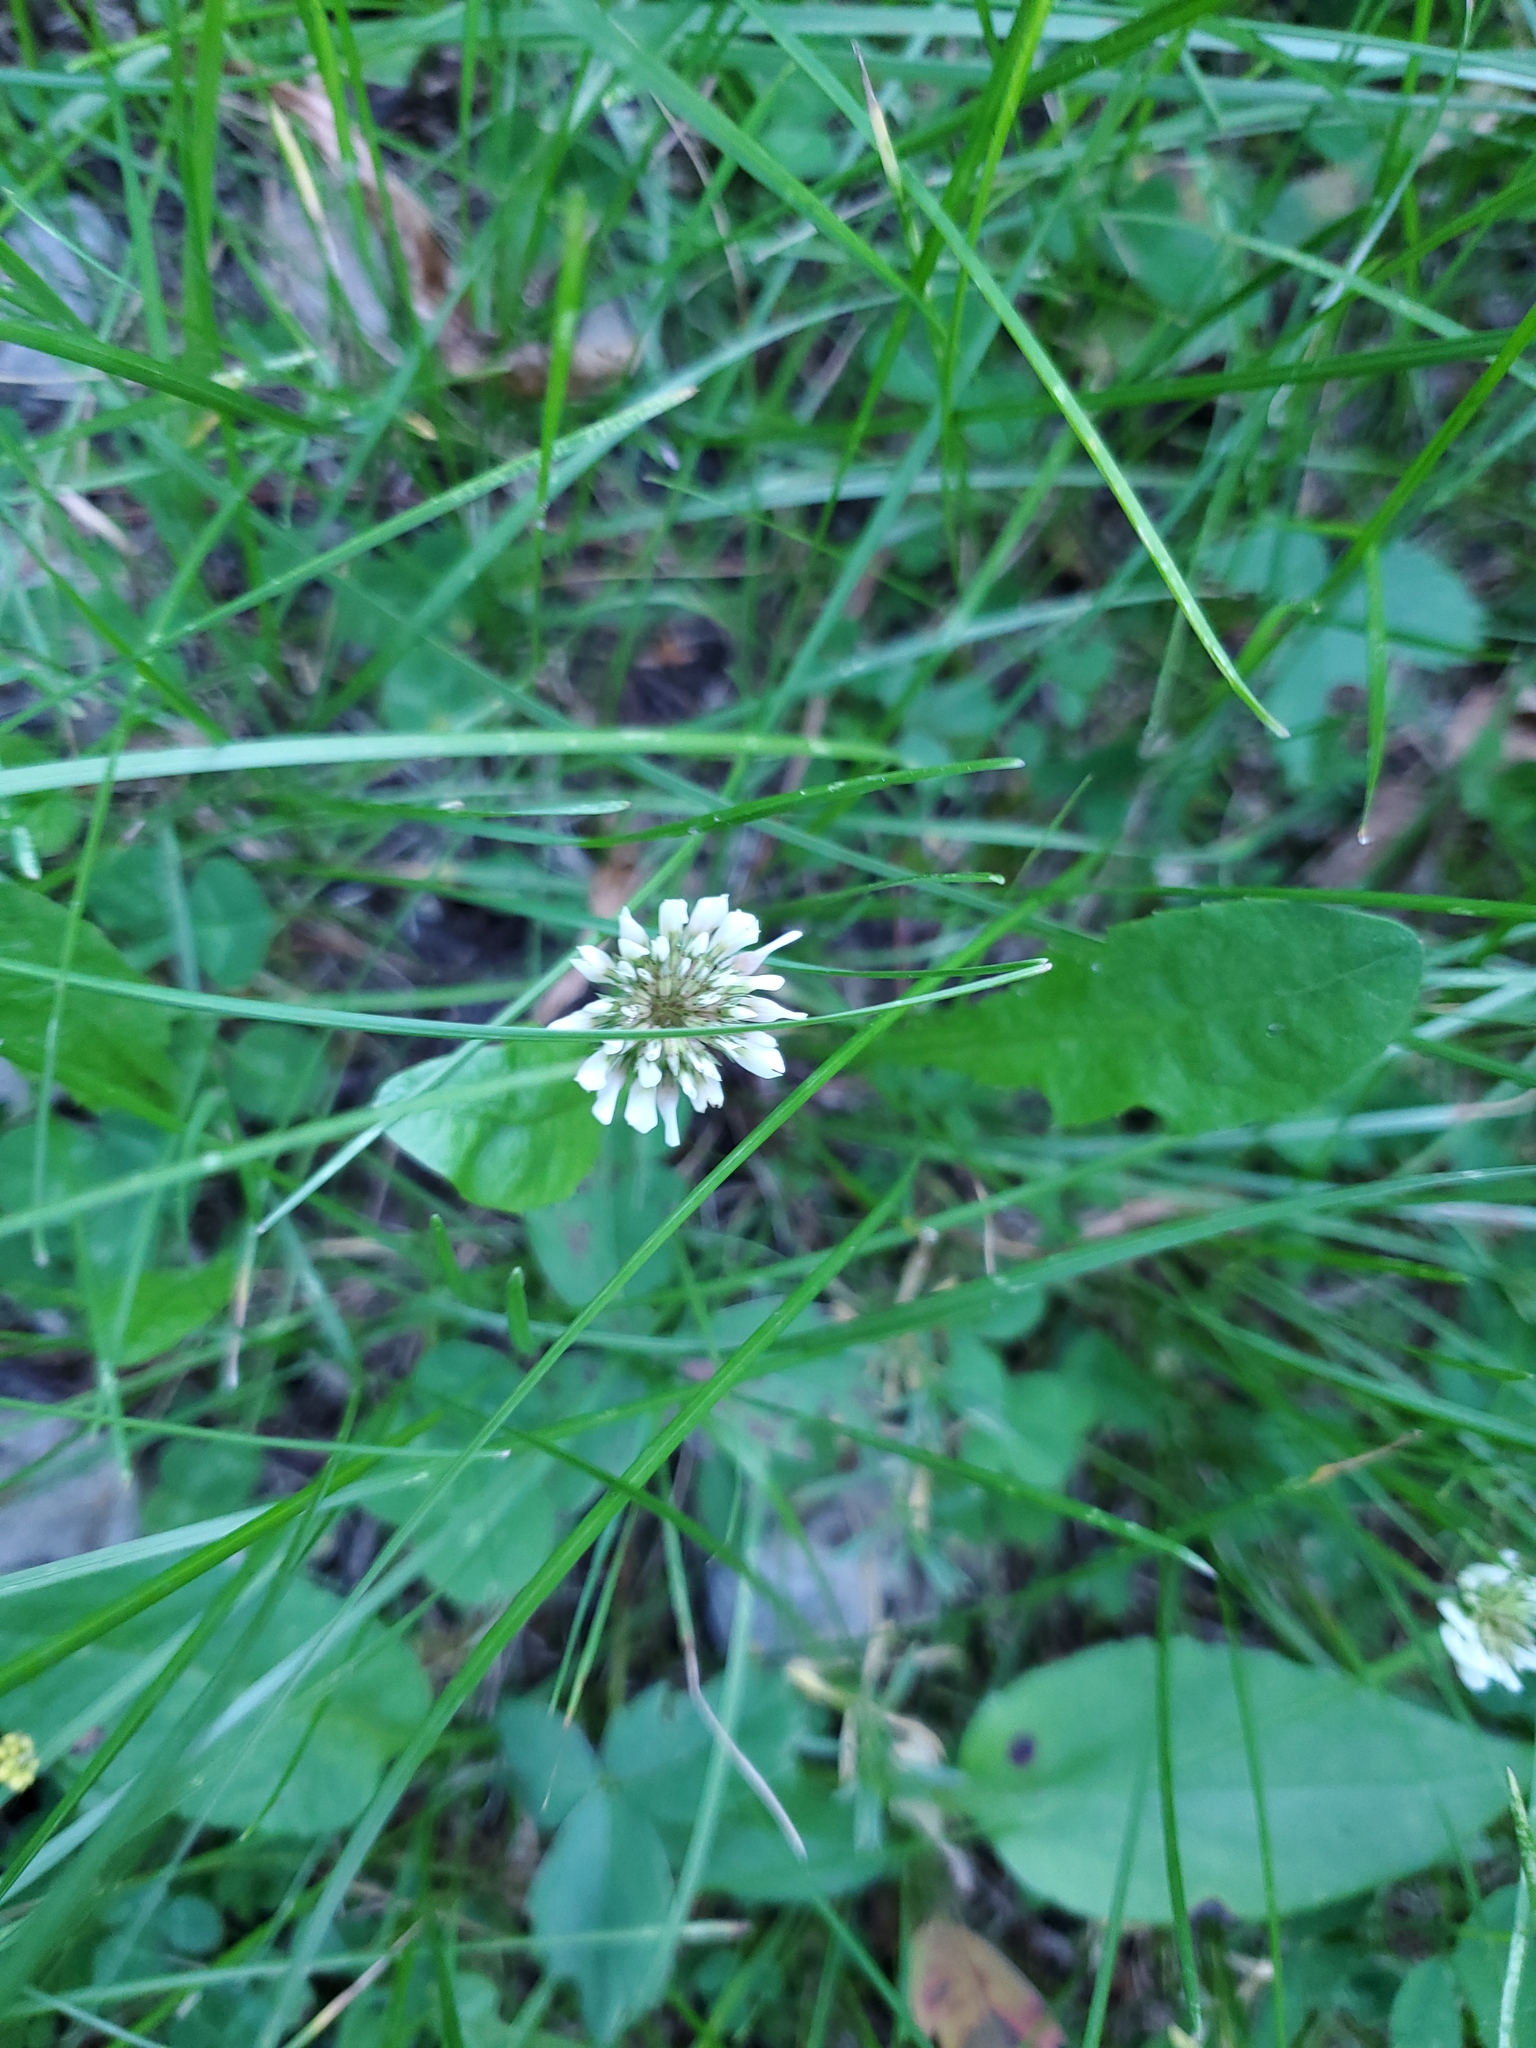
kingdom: Plantae
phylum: Tracheophyta
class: Magnoliopsida
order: Fabales
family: Fabaceae
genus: Trifolium
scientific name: Trifolium repens
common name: White clover
